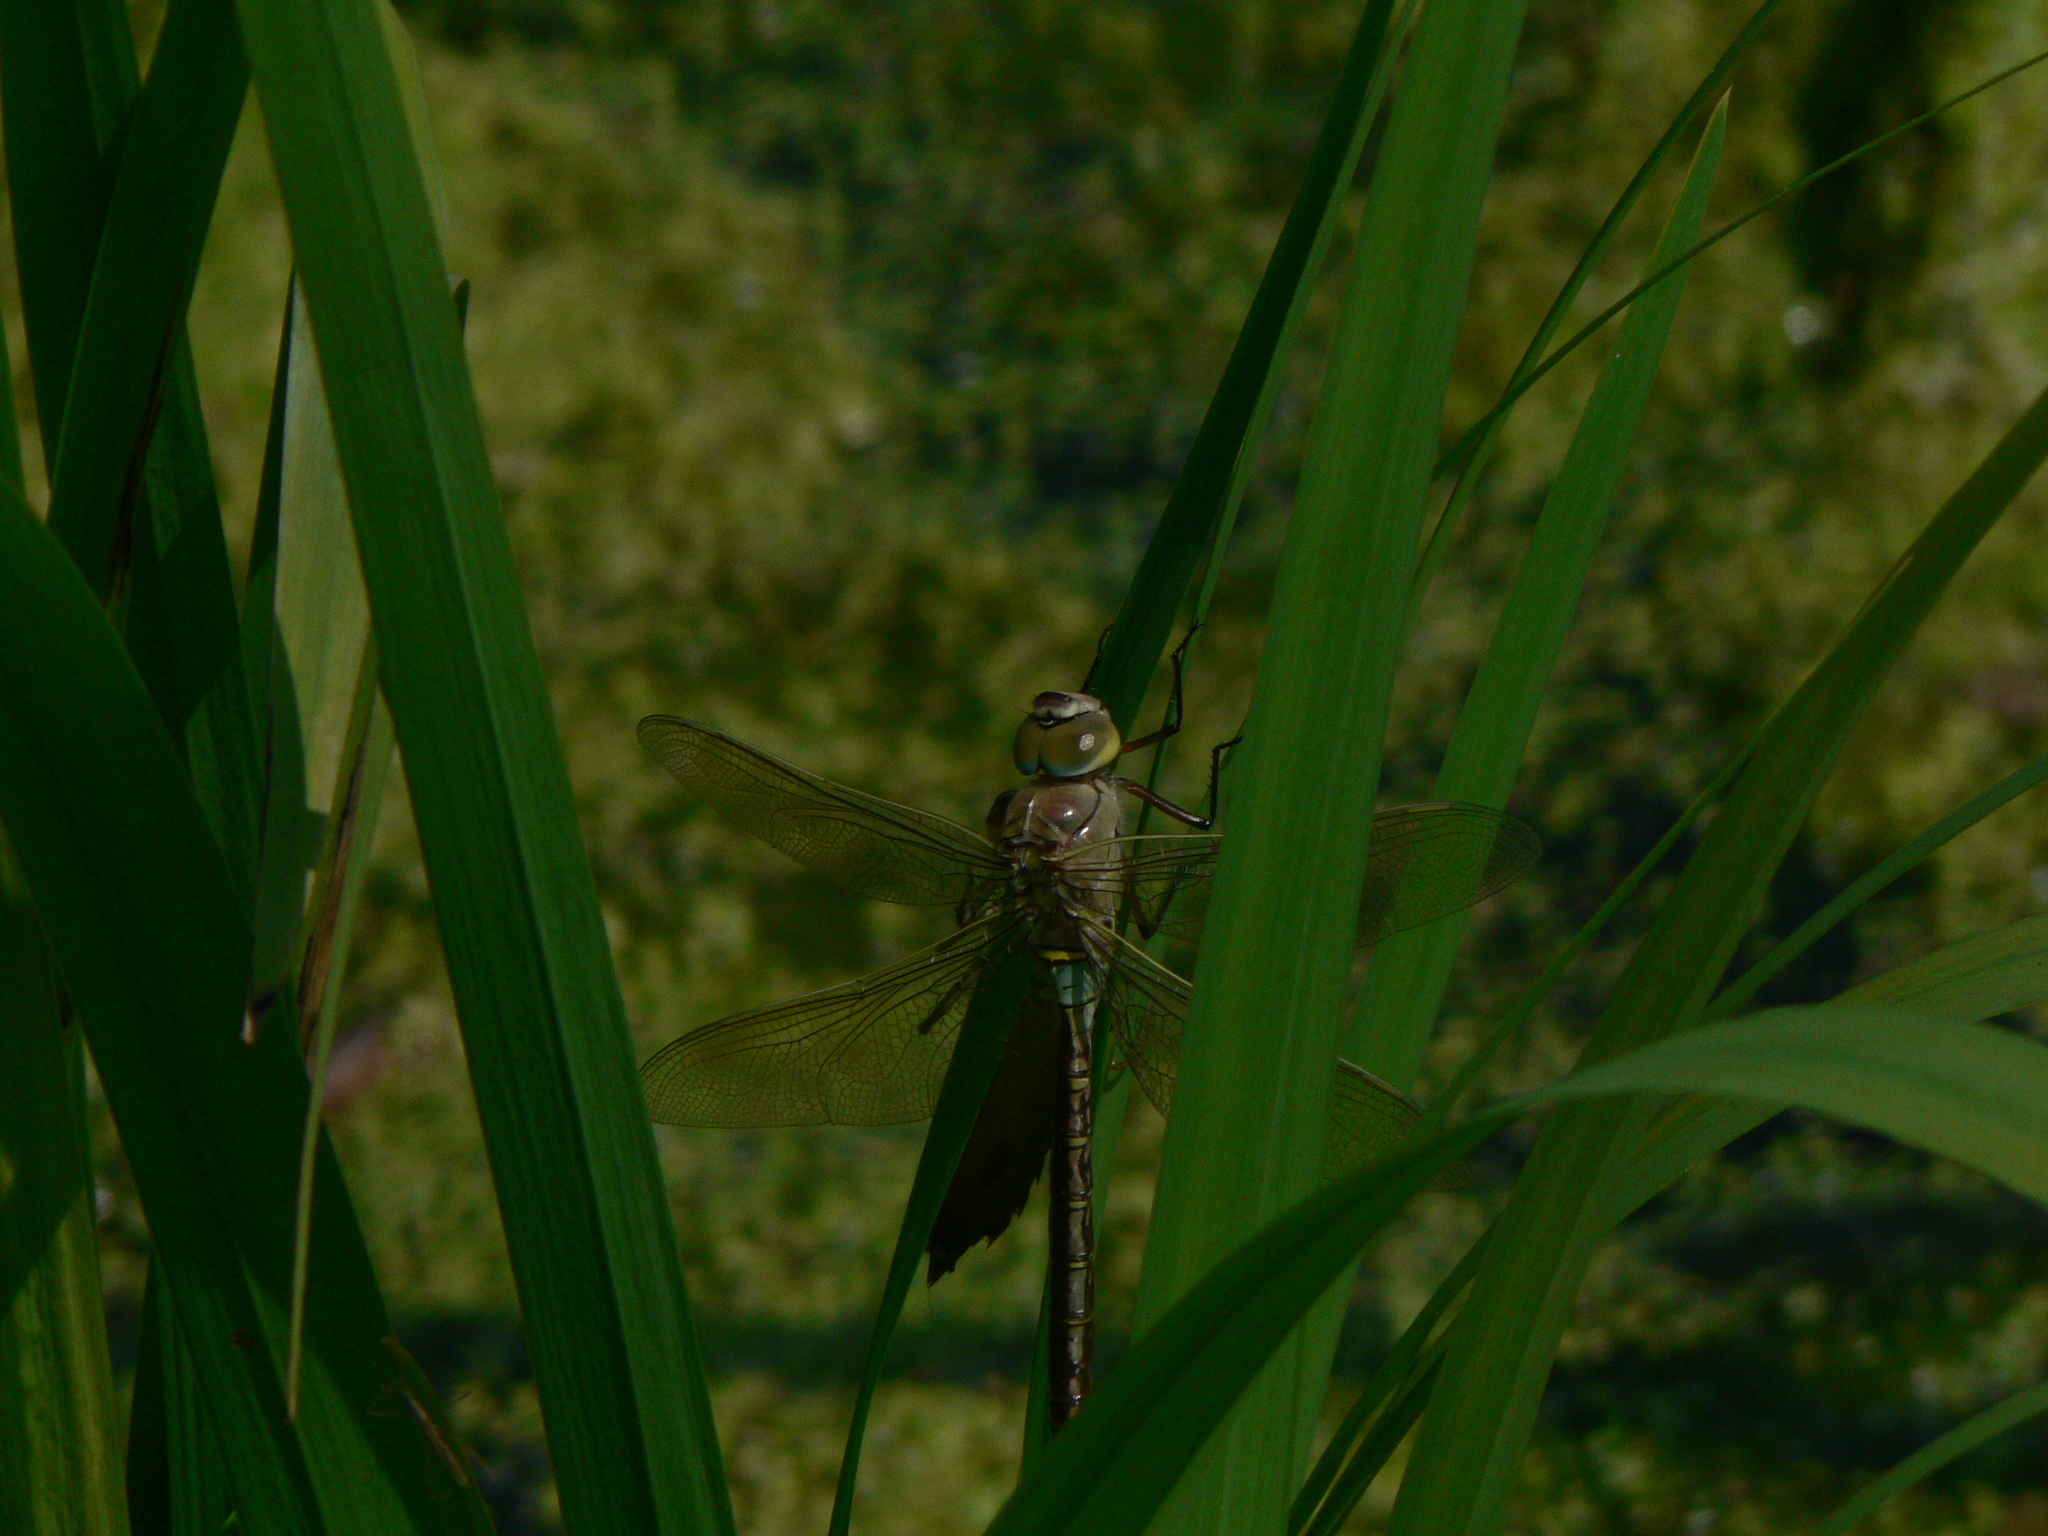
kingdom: Animalia
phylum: Arthropoda
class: Insecta
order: Odonata
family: Aeshnidae
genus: Anax
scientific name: Anax parthenope
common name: Lesser emperor
